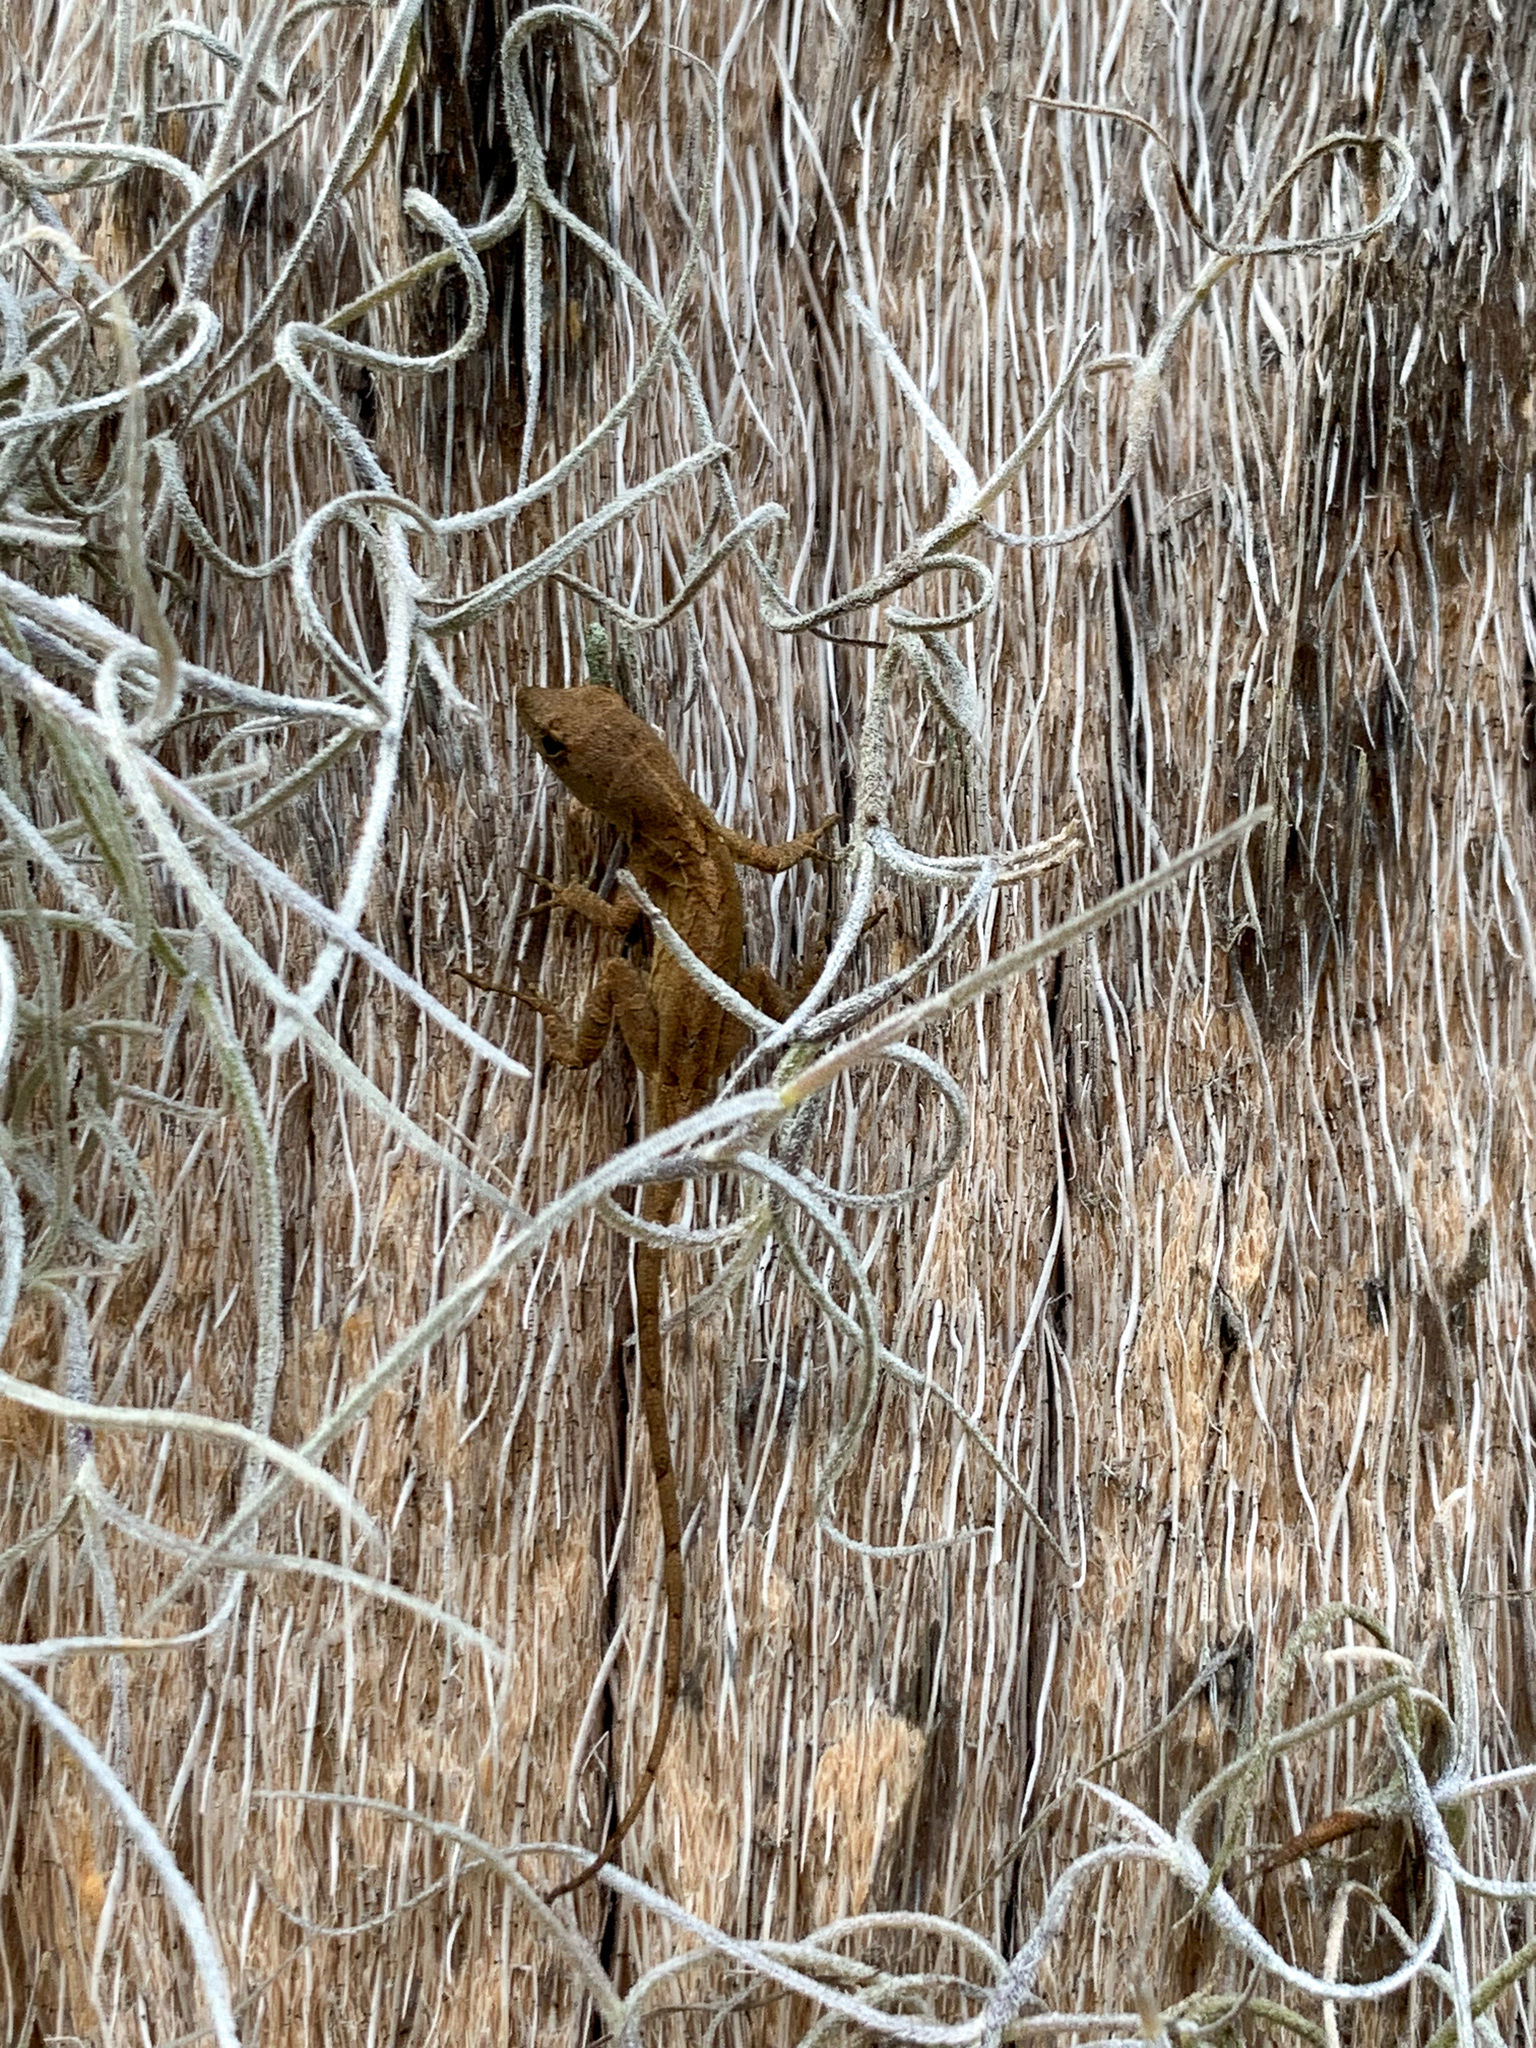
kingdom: Animalia
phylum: Chordata
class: Squamata
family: Dactyloidae
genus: Anolis
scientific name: Anolis sagrei
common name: Brown anole
